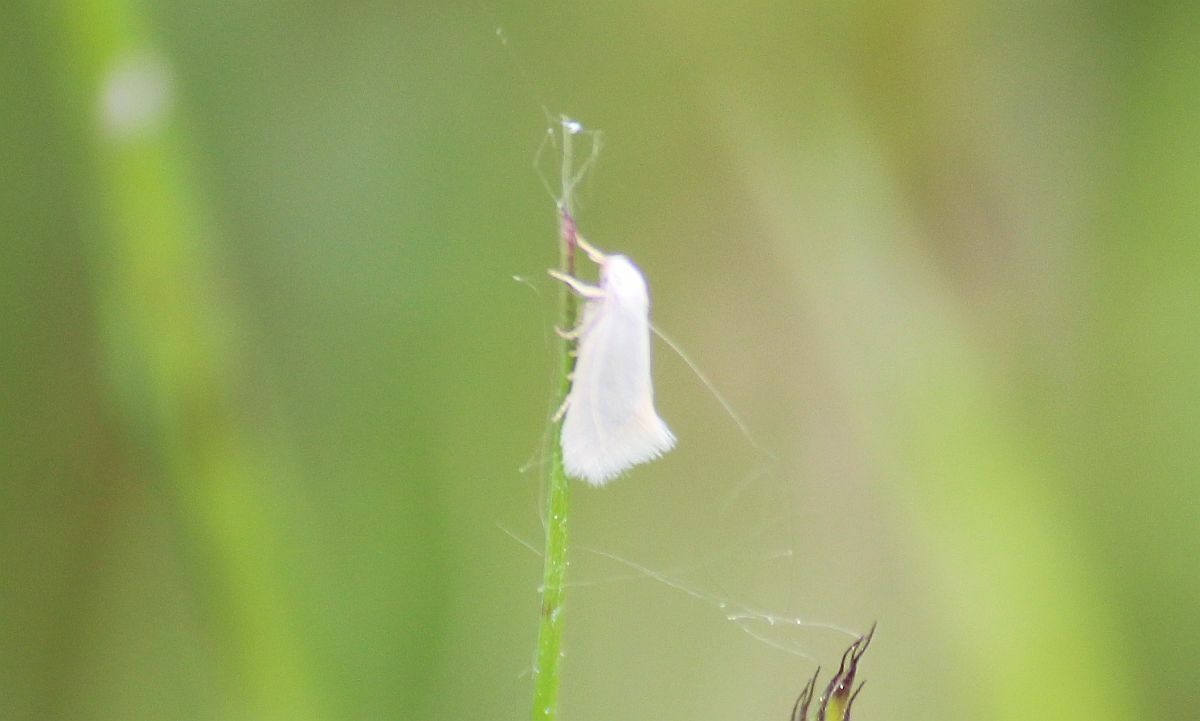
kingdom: Animalia
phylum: Arthropoda
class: Insecta
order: Lepidoptera
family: Elachistidae
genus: Elachista
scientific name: Elachista argentella
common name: Swan-feather dwarf
